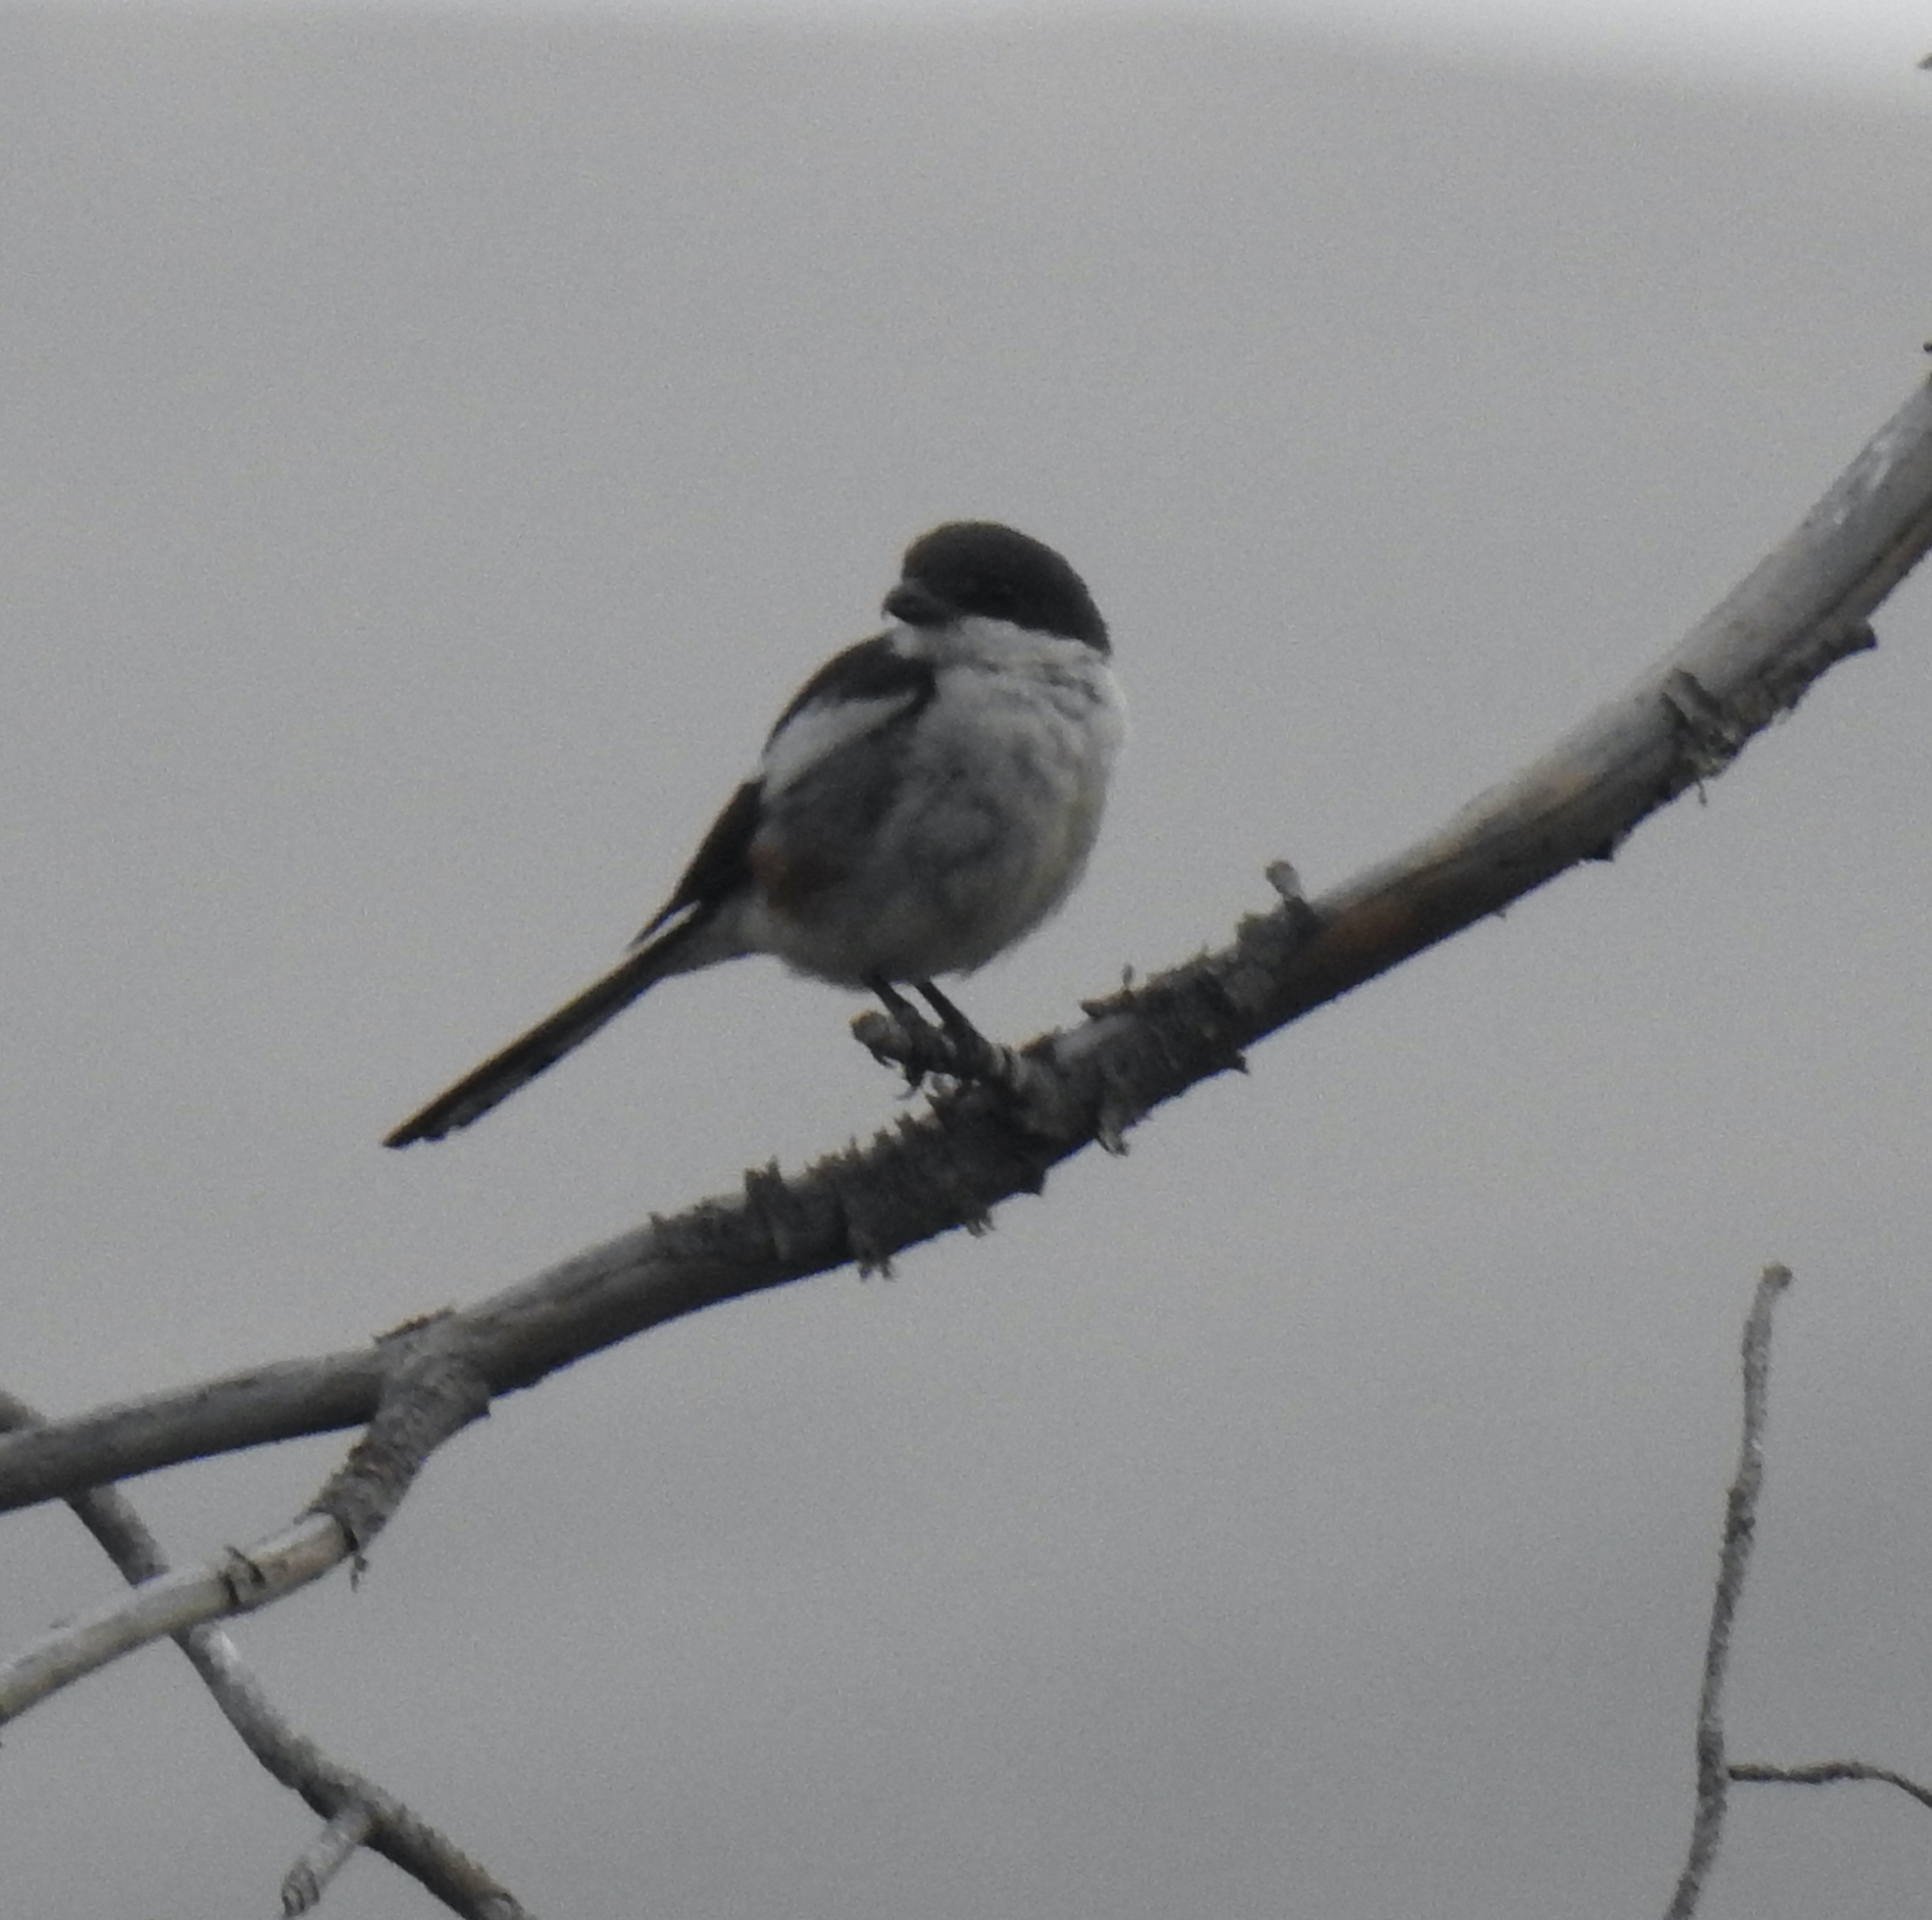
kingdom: Animalia
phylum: Chordata
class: Aves
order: Passeriformes
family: Laniidae
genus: Lanius
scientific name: Lanius collaris
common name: Southern fiscal
